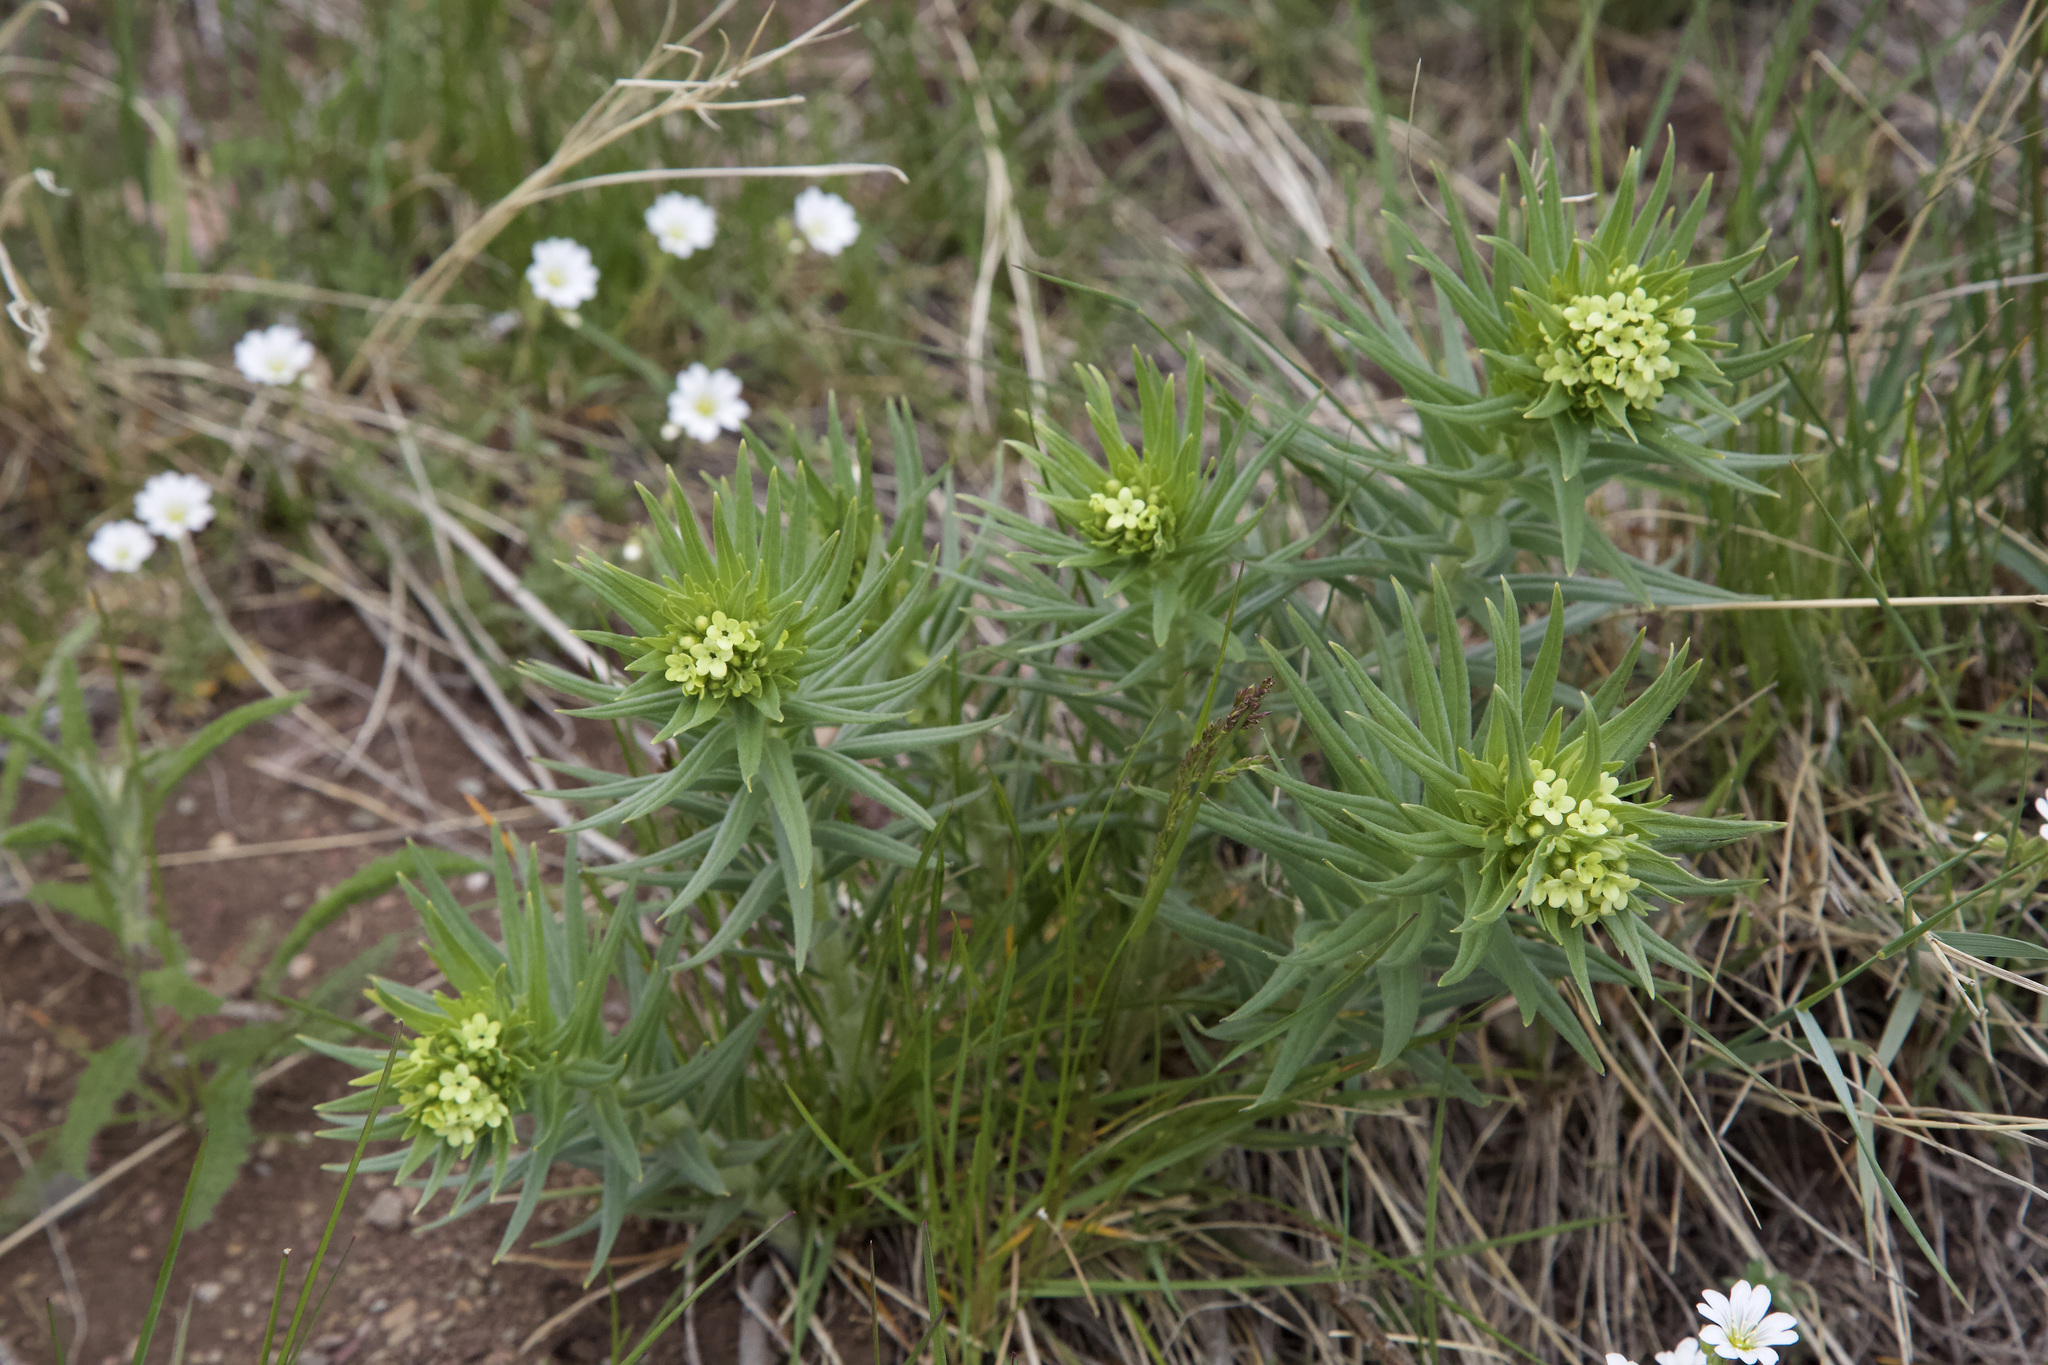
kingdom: Plantae
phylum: Tracheophyta
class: Magnoliopsida
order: Boraginales
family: Boraginaceae
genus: Lithospermum
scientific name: Lithospermum ruderale
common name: Western gromwell
